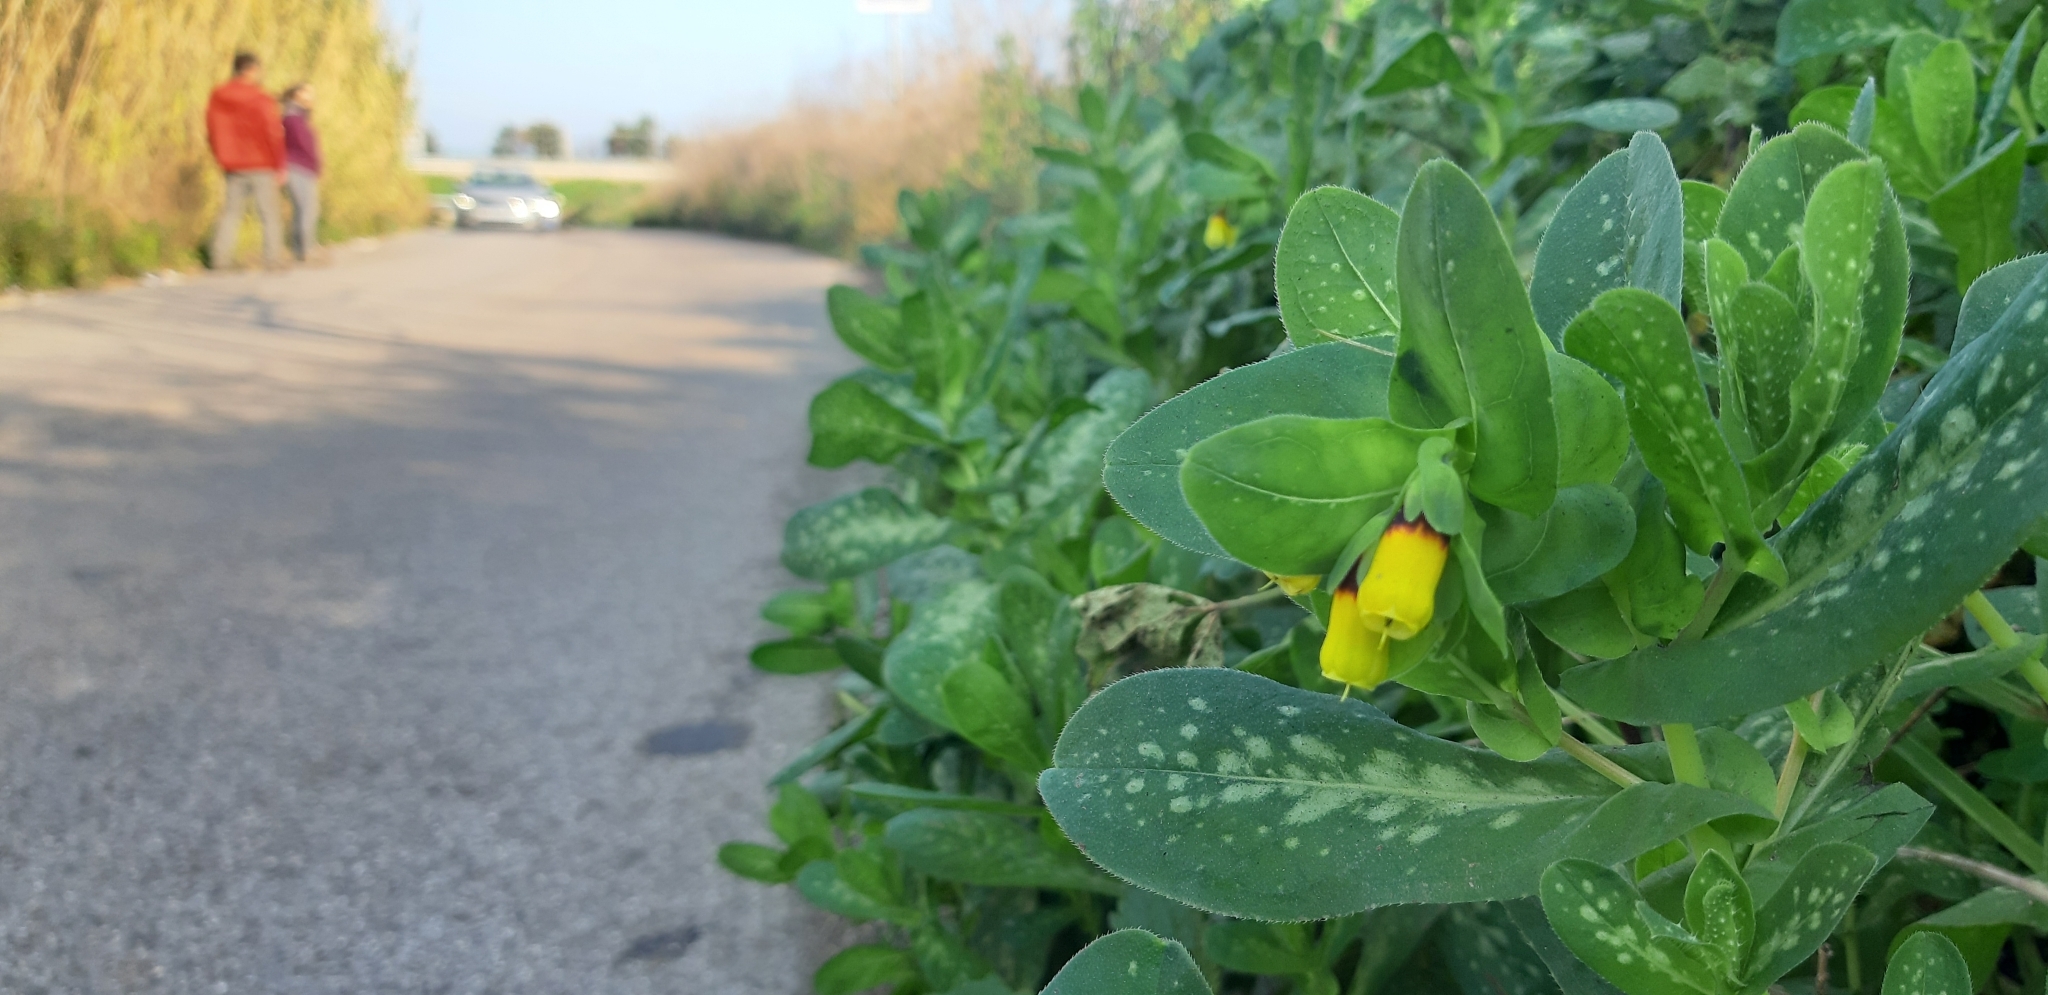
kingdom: Plantae
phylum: Tracheophyta
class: Magnoliopsida
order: Boraginales
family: Boraginaceae
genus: Cerinthe
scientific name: Cerinthe major
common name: Greater honeywort
